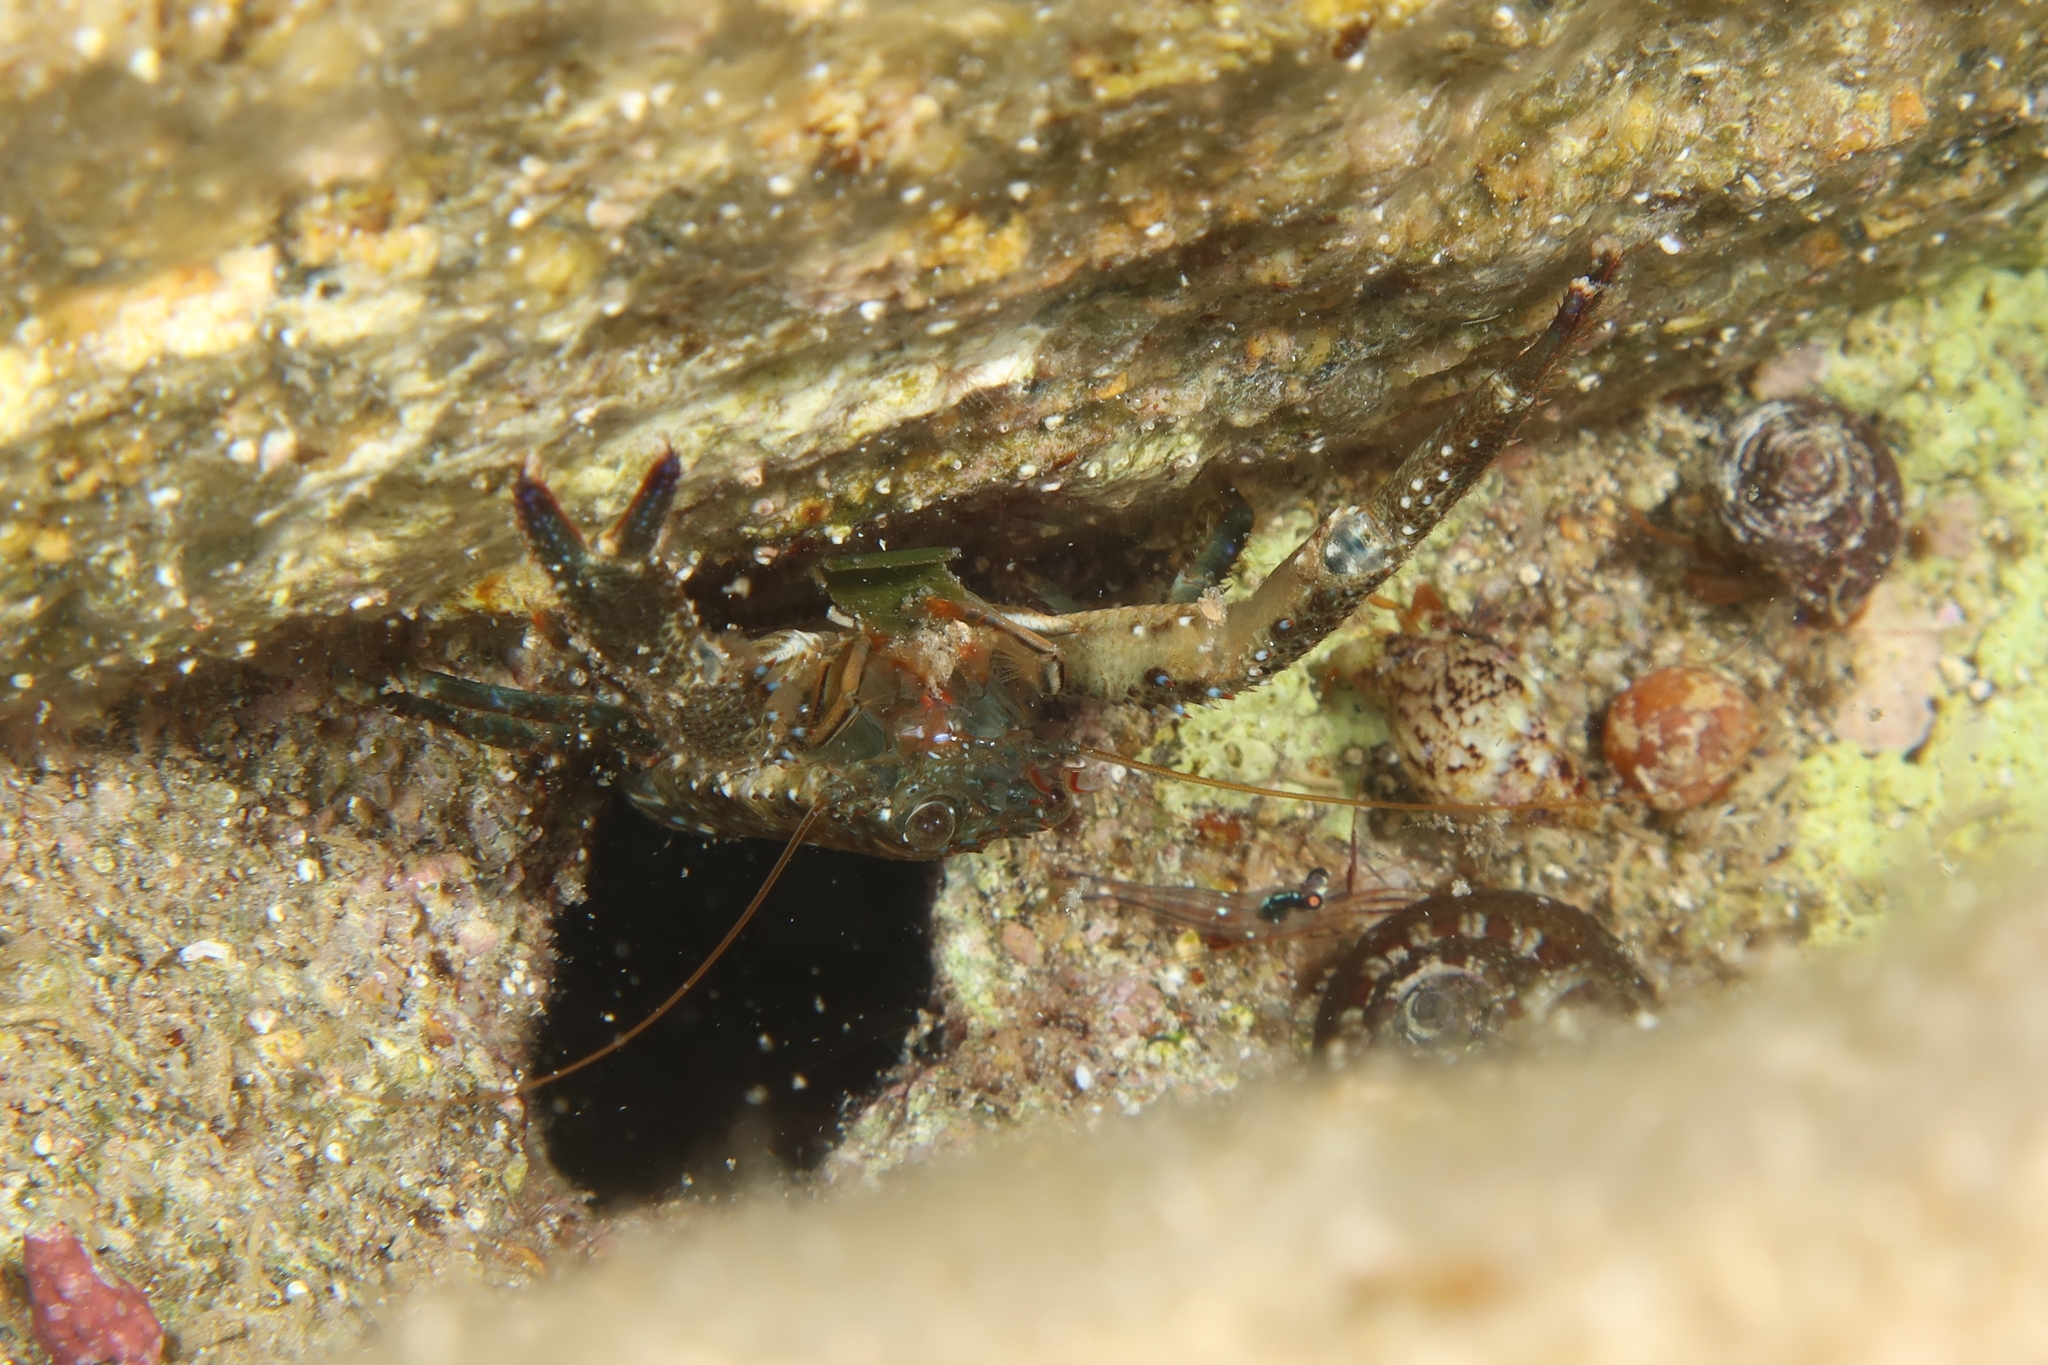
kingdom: Animalia
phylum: Arthropoda
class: Malacostraca
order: Decapoda
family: Galatheidae
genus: Galathea
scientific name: Galathea squamifera
